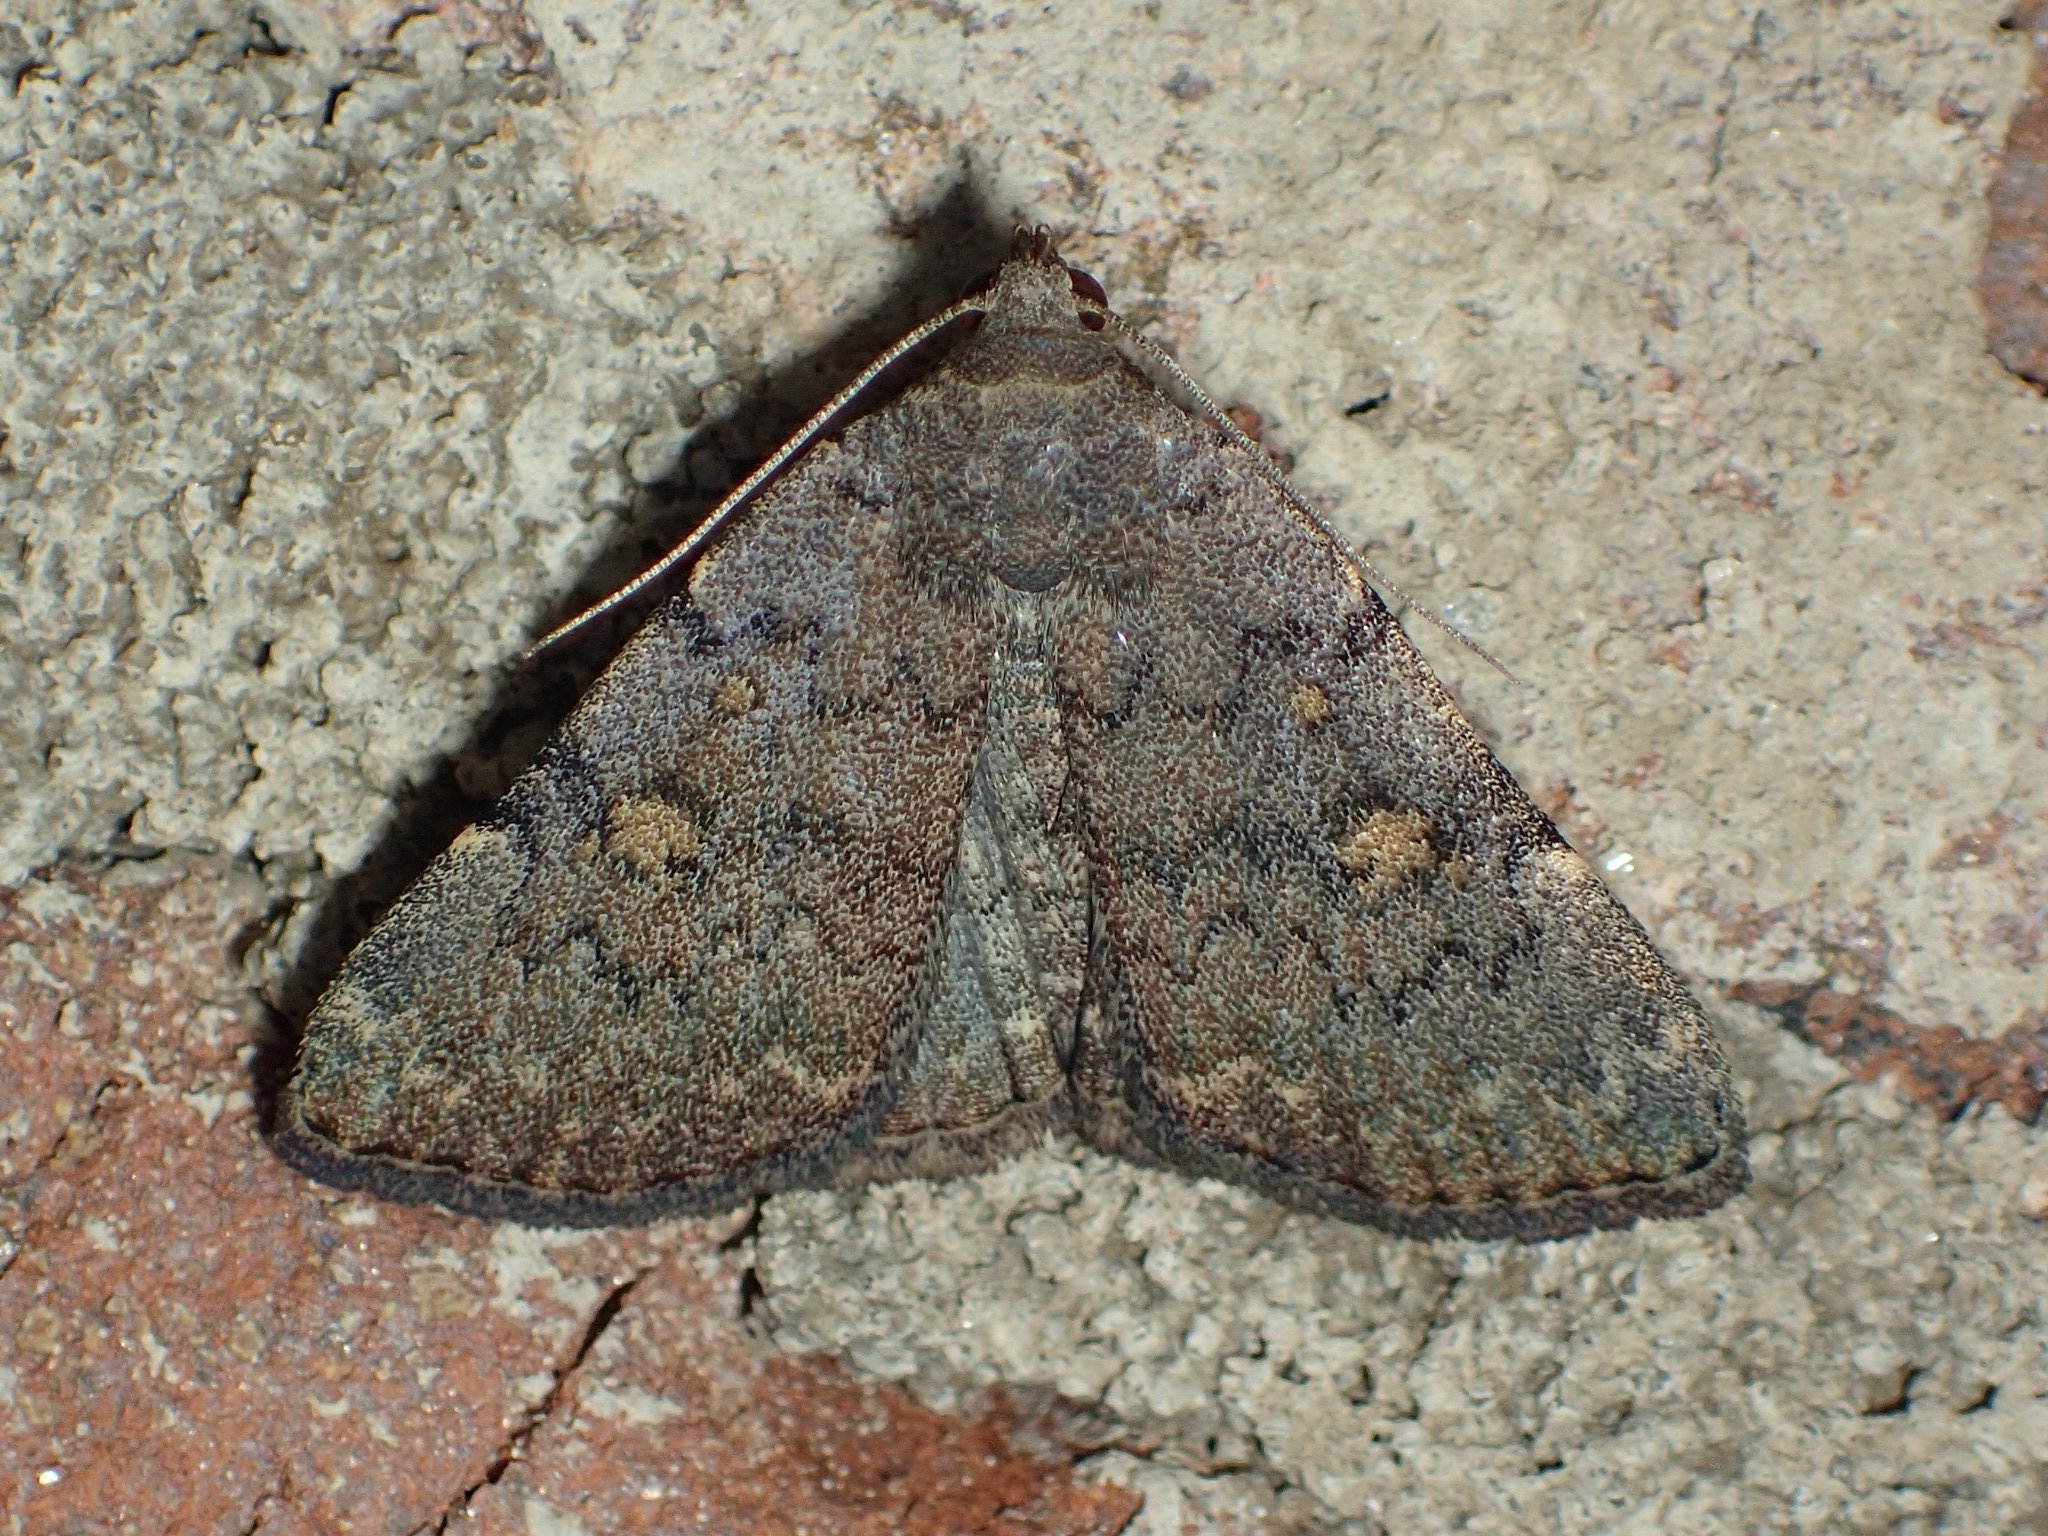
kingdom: Animalia
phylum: Arthropoda
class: Insecta
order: Lepidoptera
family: Erebidae
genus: Idia
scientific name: Idia aemula
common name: Common idia moth
